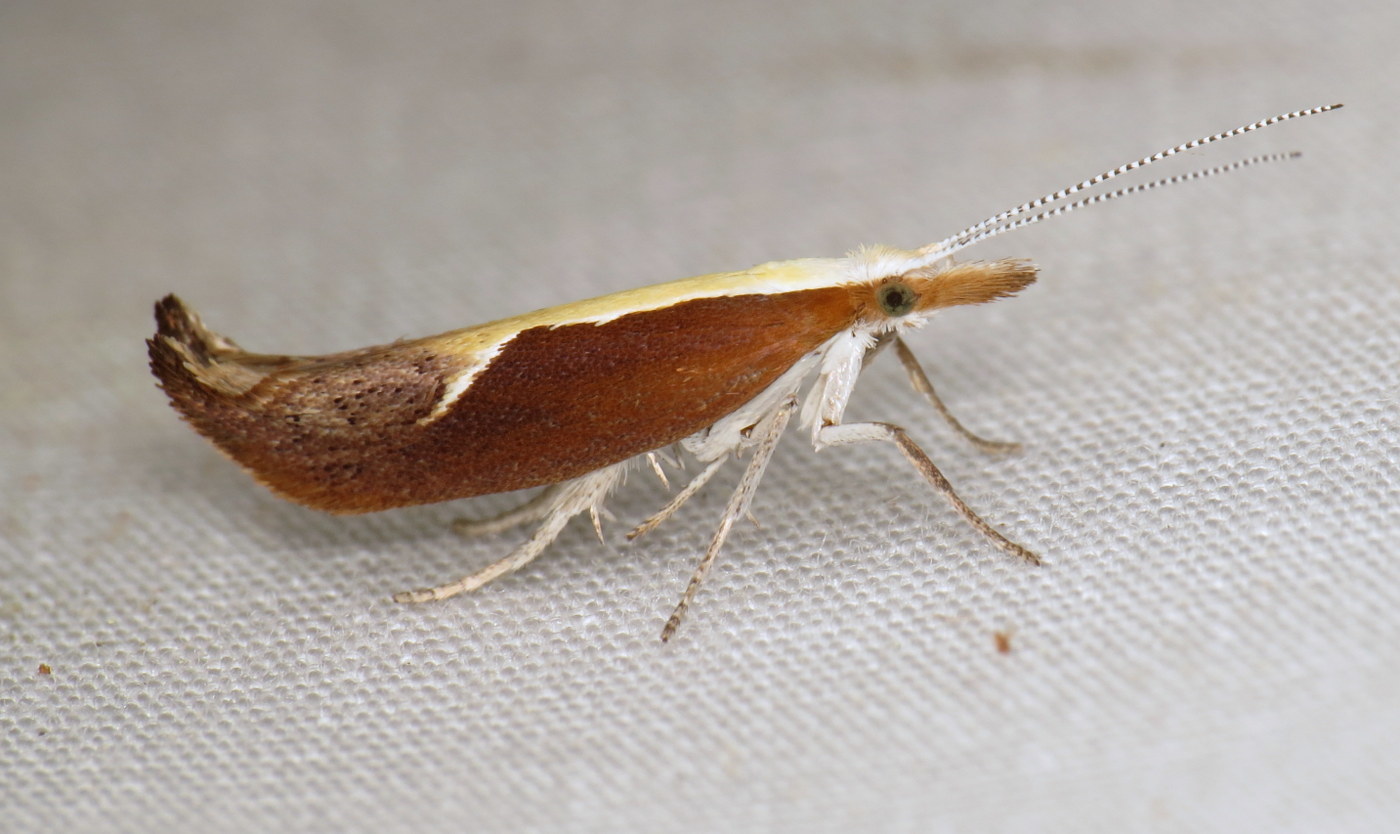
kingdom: Animalia
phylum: Arthropoda
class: Insecta
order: Lepidoptera
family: Ypsolophidae
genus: Ypsolopha
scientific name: Ypsolopha dentella
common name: Honeysuckle moth
